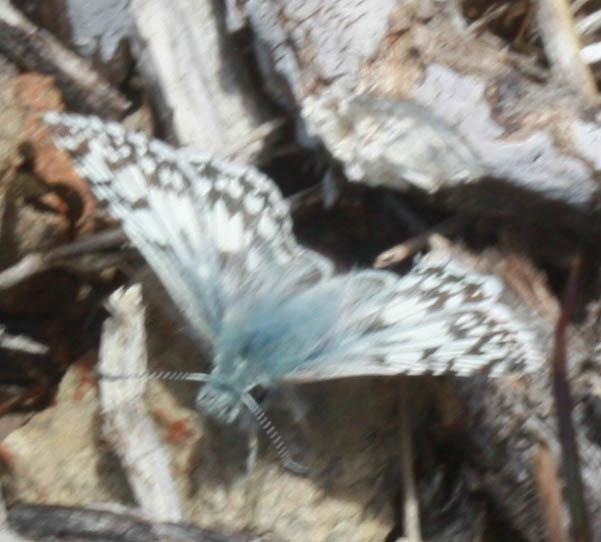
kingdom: Animalia
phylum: Arthropoda
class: Insecta
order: Lepidoptera
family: Hesperiidae
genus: Burnsius
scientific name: Burnsius communis
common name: Common checkered-skipper
